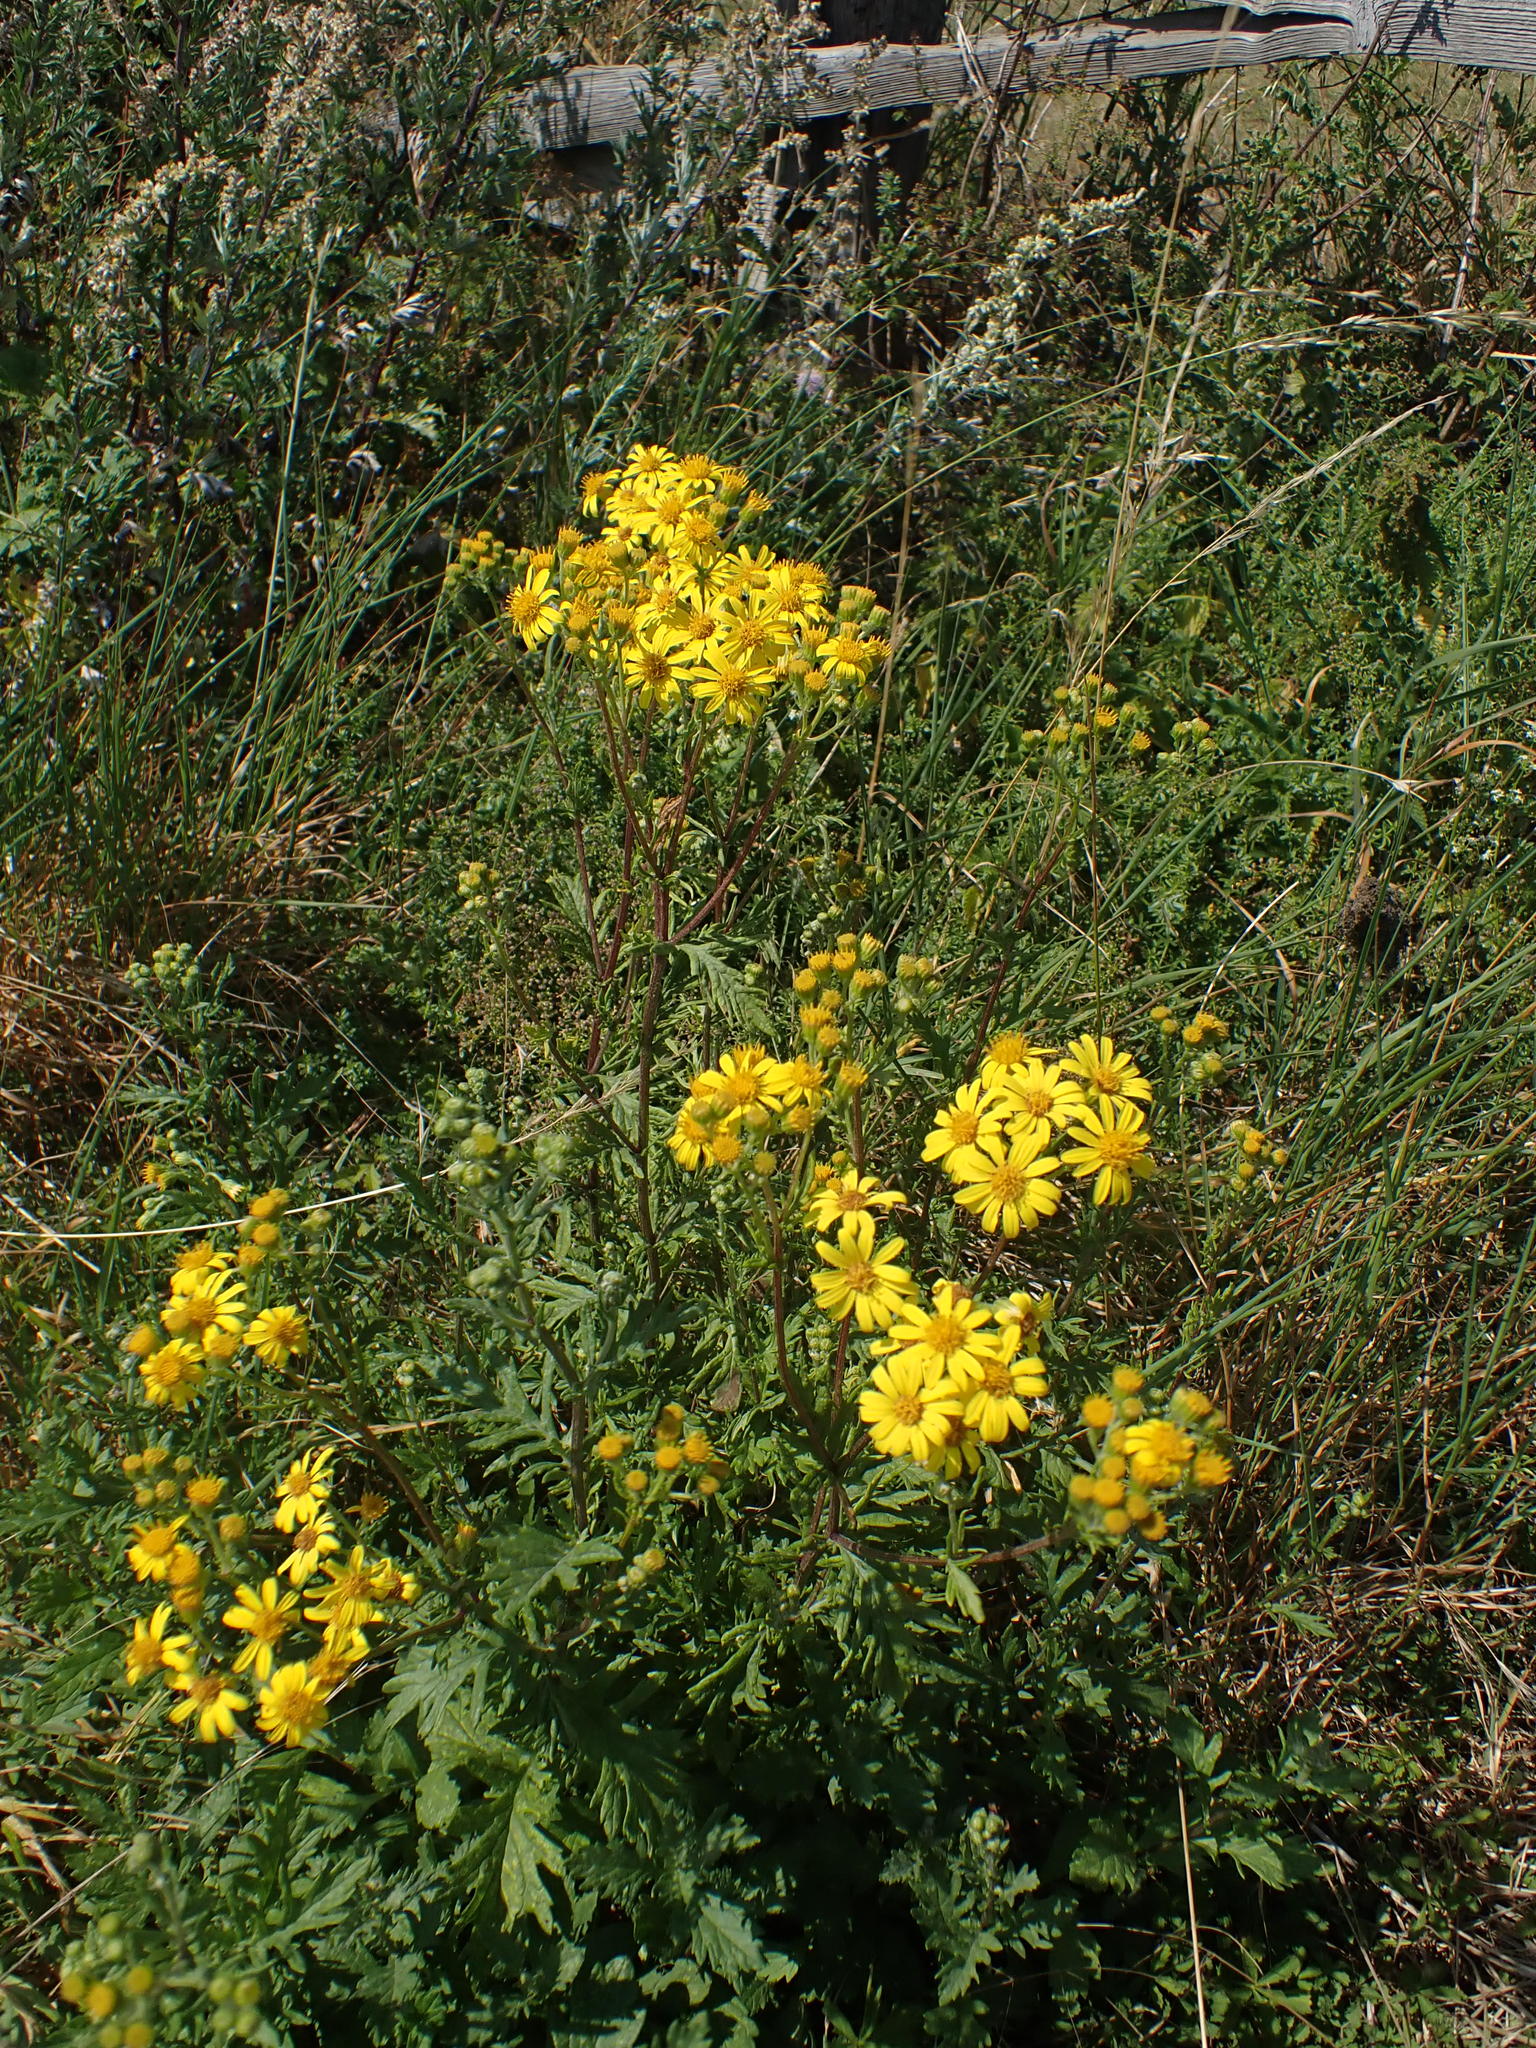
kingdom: Plantae
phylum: Tracheophyta
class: Magnoliopsida
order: Asterales
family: Asteraceae
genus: Jacobaea
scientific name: Jacobaea vulgaris
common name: Stinking willie
